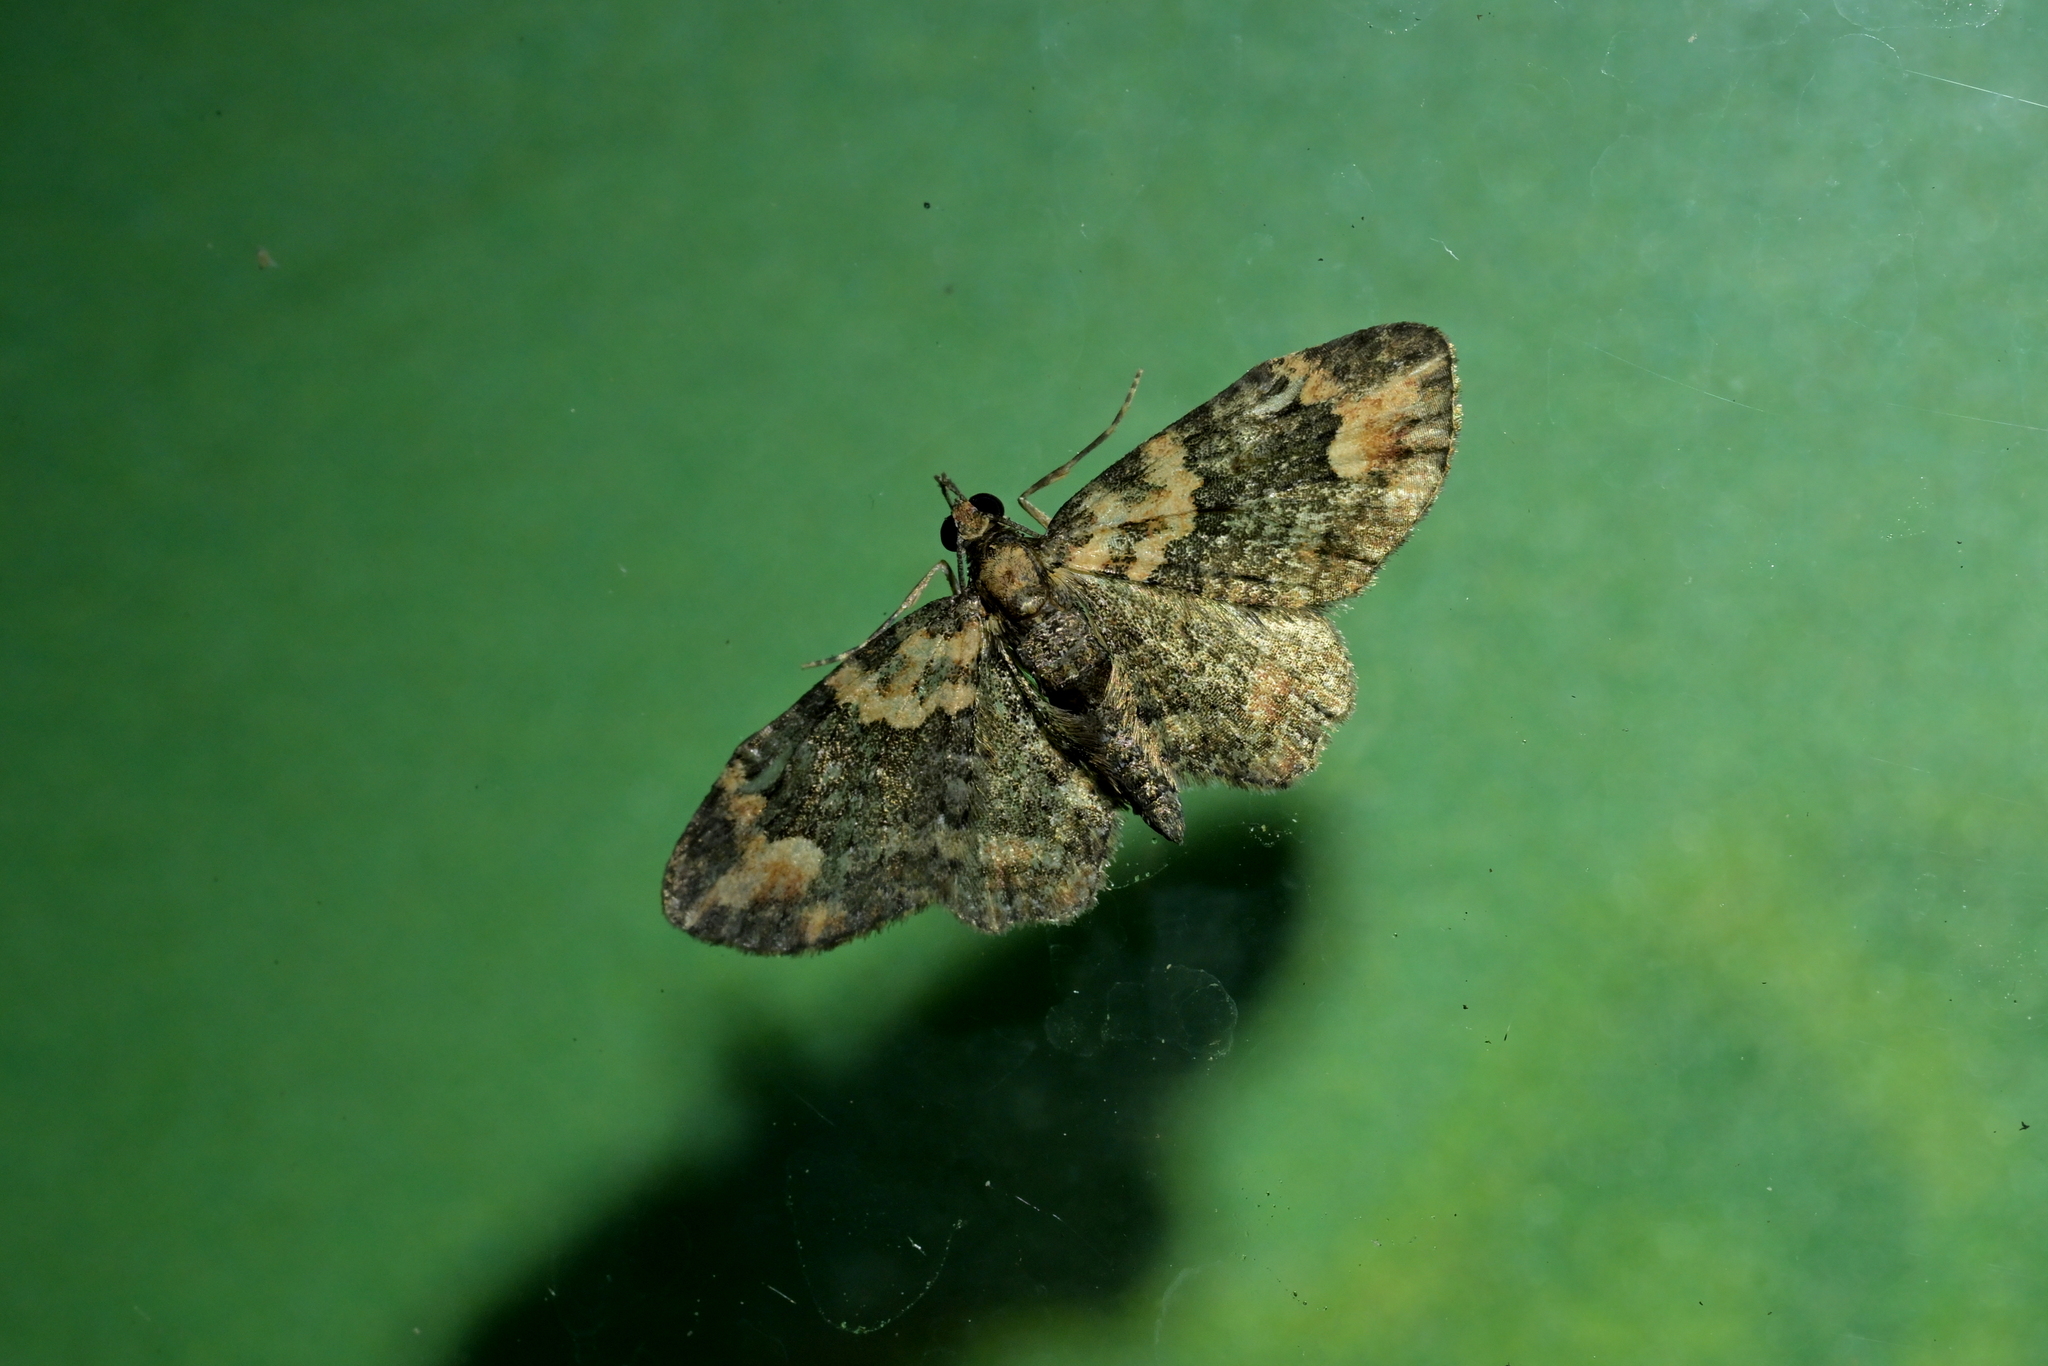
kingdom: Animalia
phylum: Arthropoda
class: Insecta
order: Lepidoptera
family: Geometridae
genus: Pasiphilodes
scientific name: Pasiphilodes testulata
